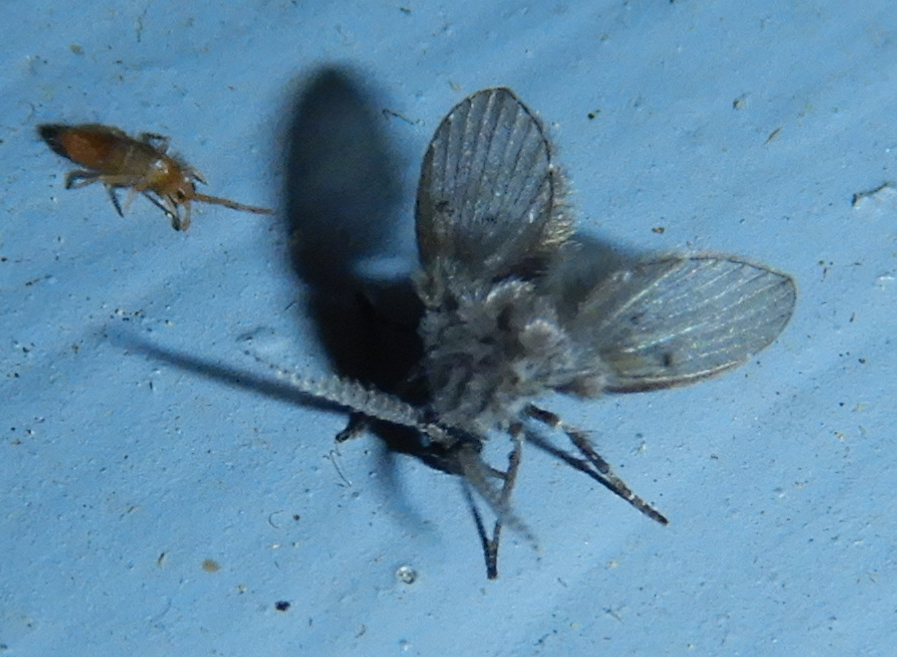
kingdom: Animalia
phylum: Arthropoda
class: Insecta
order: Diptera
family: Psychodidae
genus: Clogmia
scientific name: Clogmia albipunctatus
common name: White-spotted moth fly
